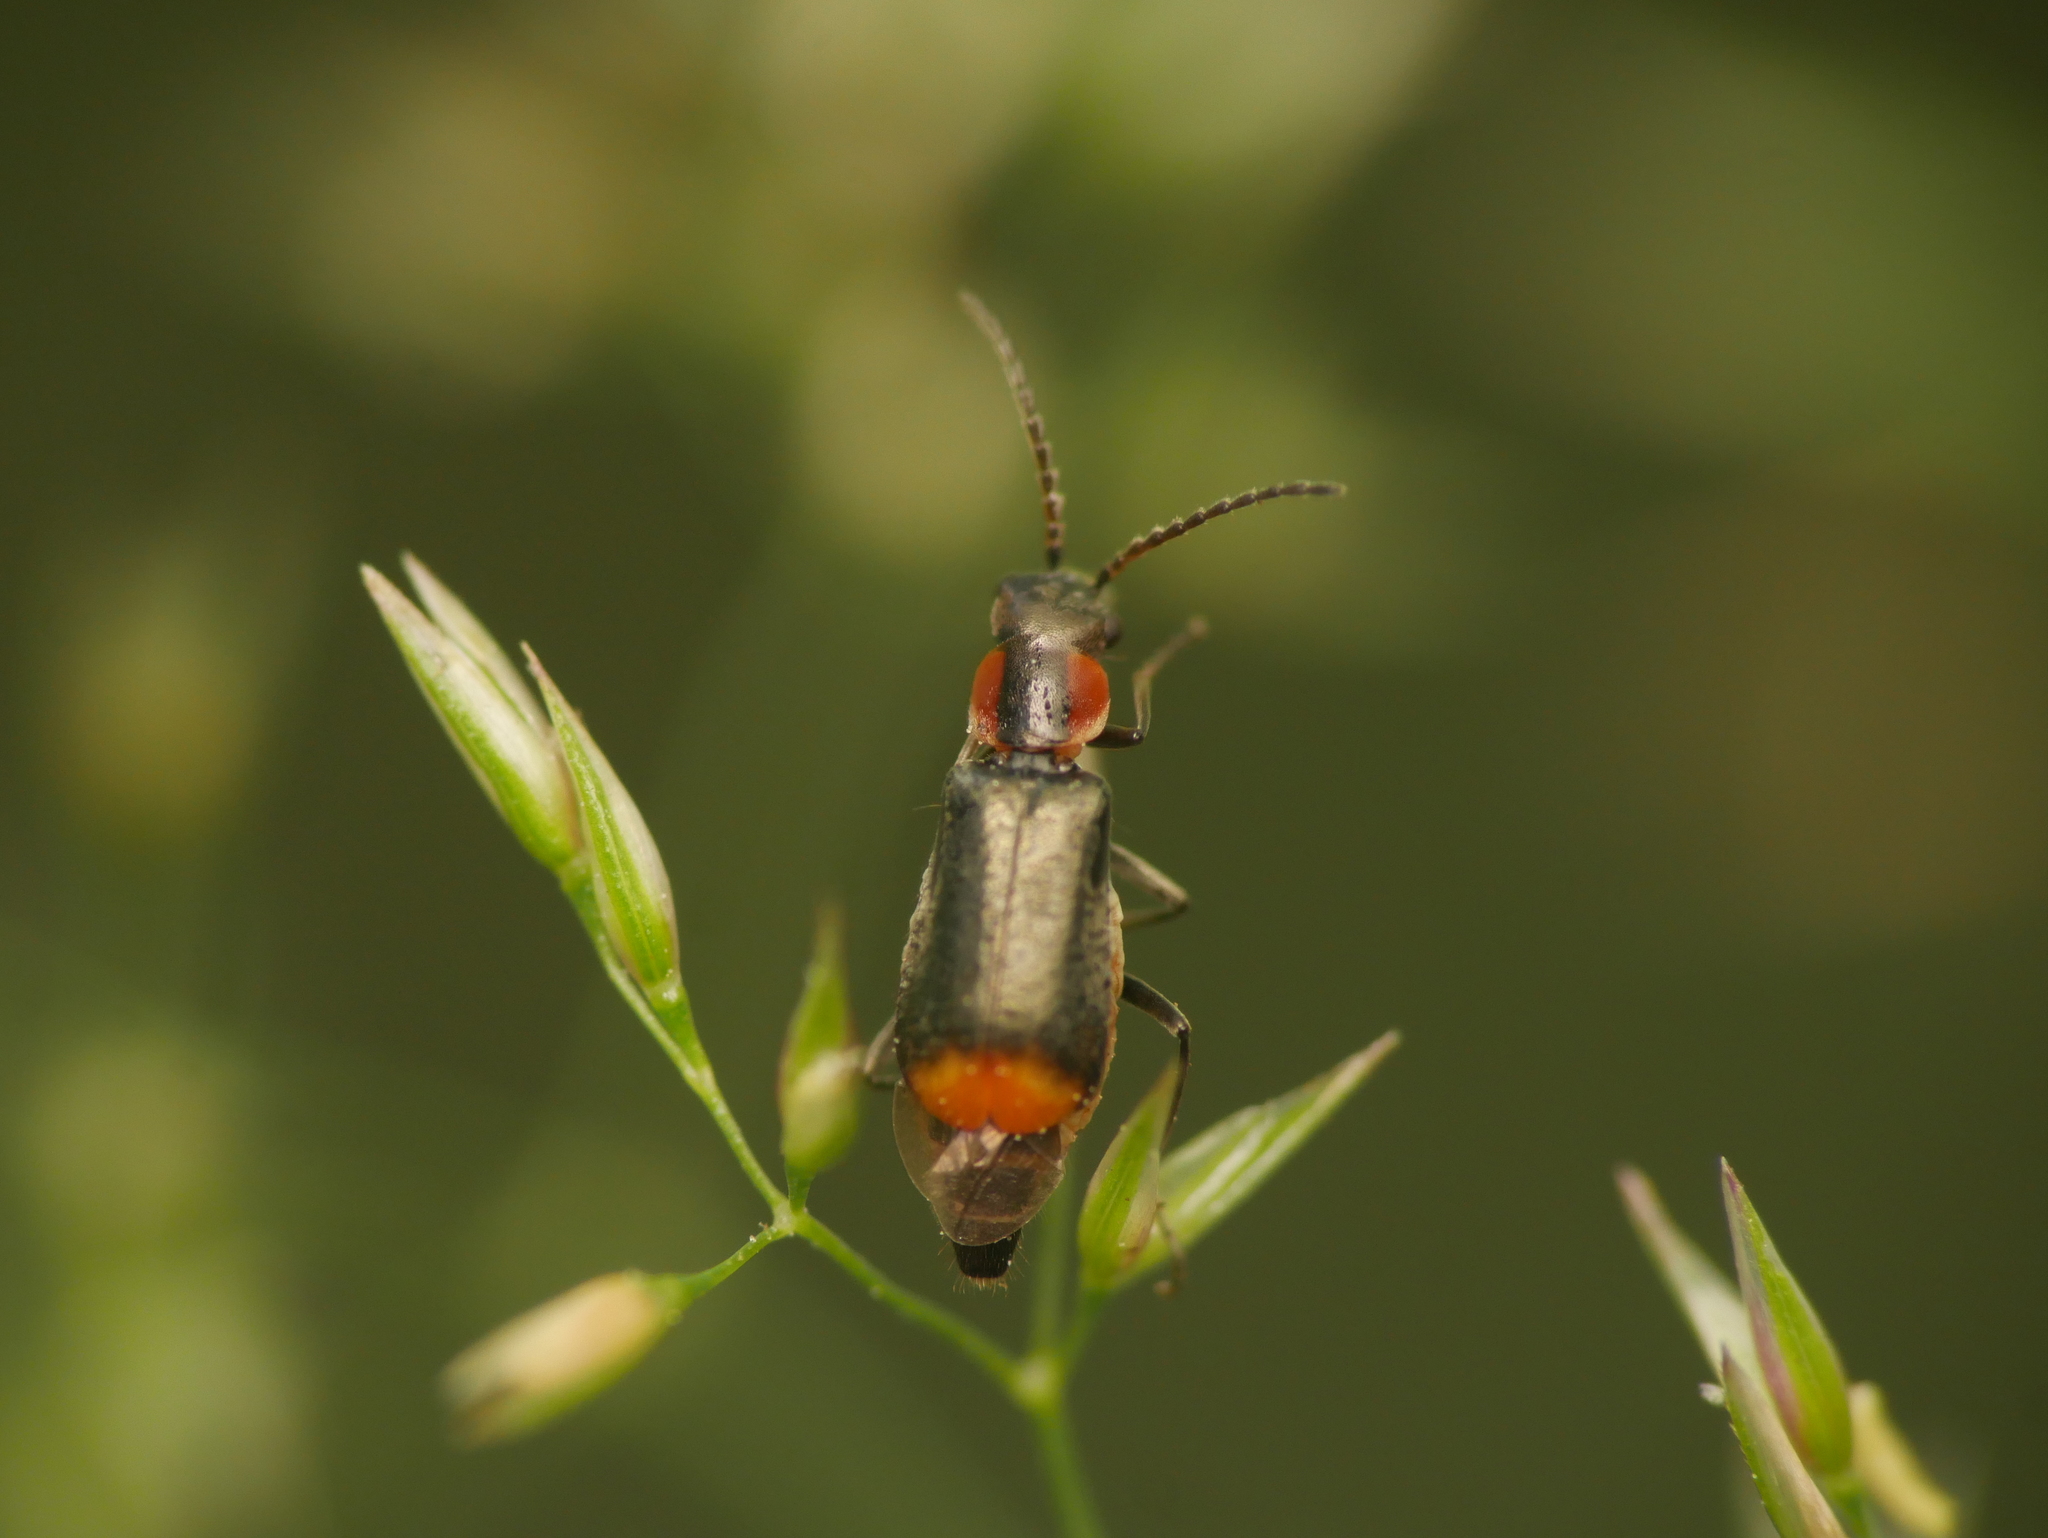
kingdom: Animalia
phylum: Arthropoda
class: Insecta
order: Coleoptera
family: Melyridae
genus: Axinotarsus
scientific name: Axinotarsus pulicarius
